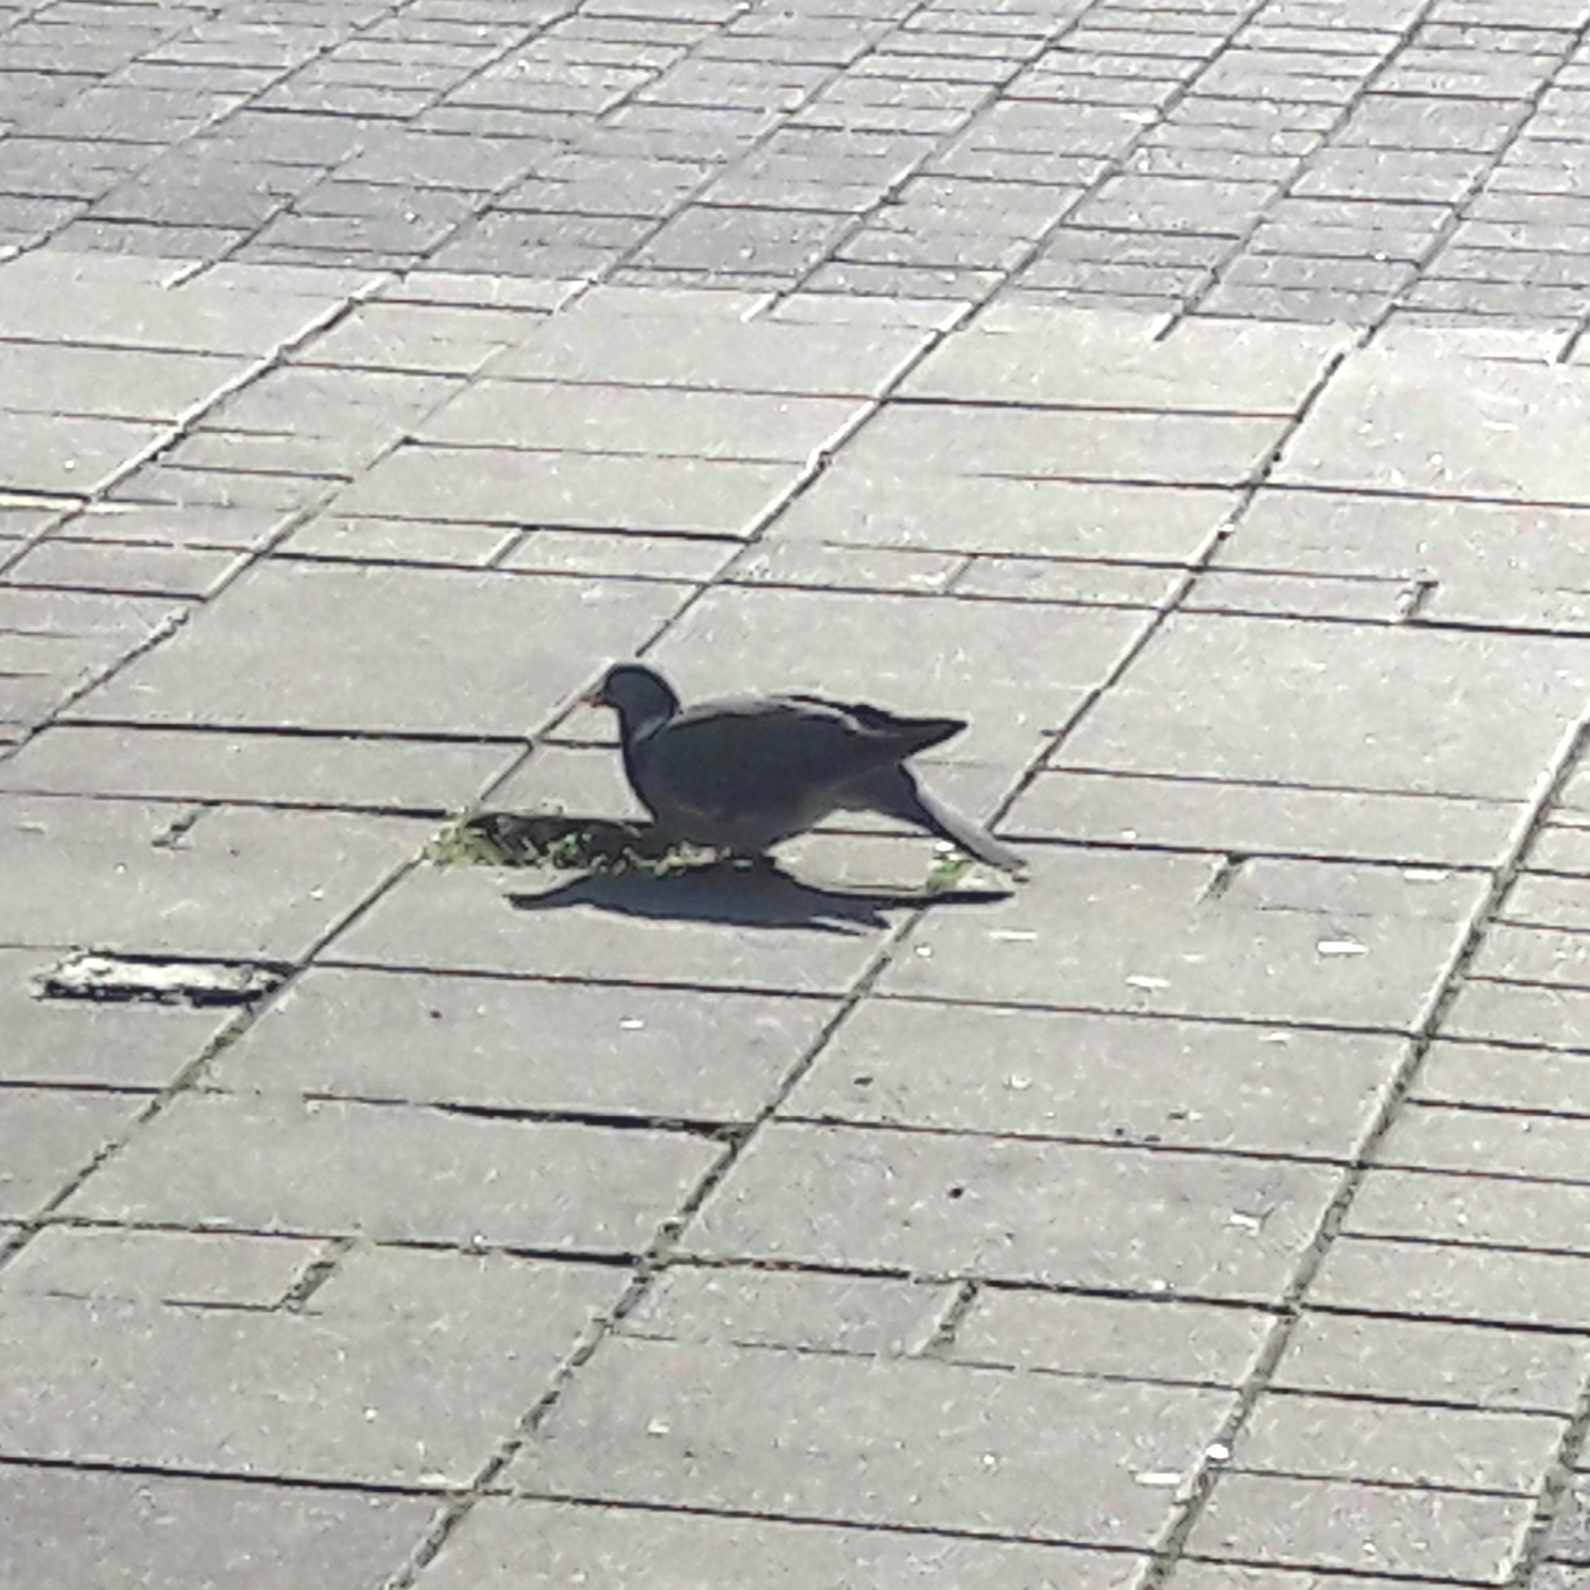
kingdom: Animalia
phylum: Chordata
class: Aves
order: Columbiformes
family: Columbidae
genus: Columba
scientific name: Columba palumbus
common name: Common wood pigeon
